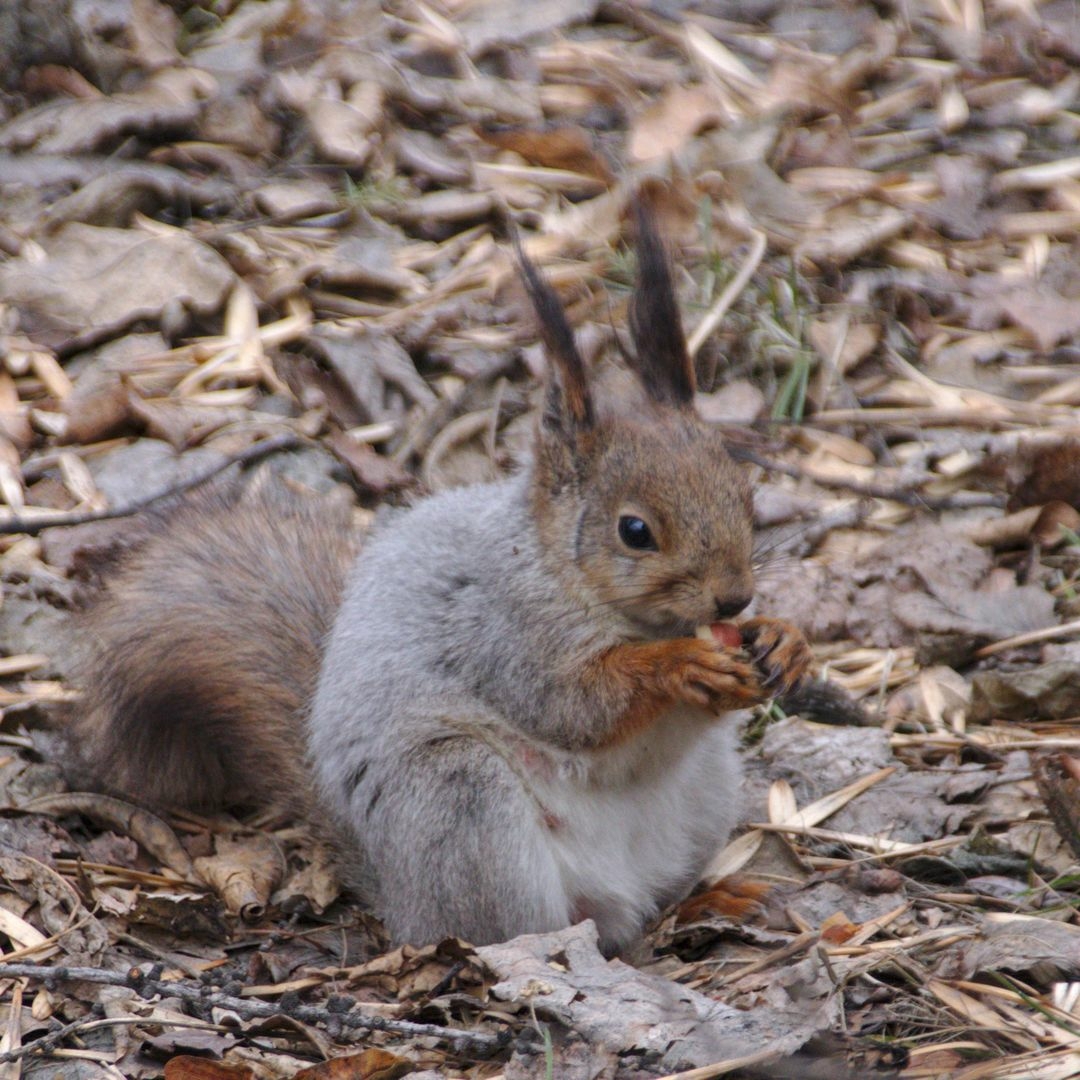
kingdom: Animalia
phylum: Chordata
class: Mammalia
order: Rodentia
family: Sciuridae
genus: Sciurus
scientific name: Sciurus vulgaris
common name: Eurasian red squirrel
